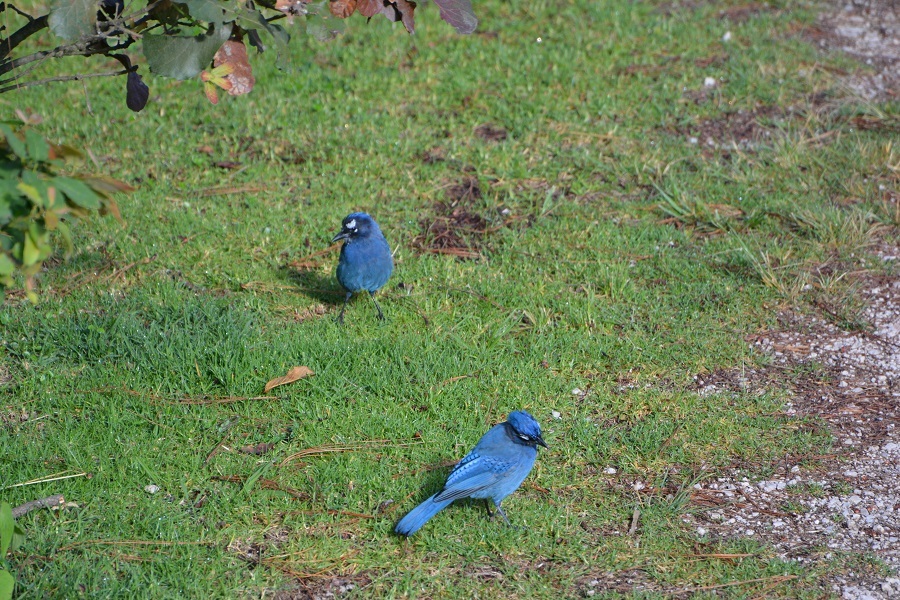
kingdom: Animalia
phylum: Chordata
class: Aves
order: Passeriformes
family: Corvidae
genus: Cyanocitta
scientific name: Cyanocitta stelleri
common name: Steller's jay
